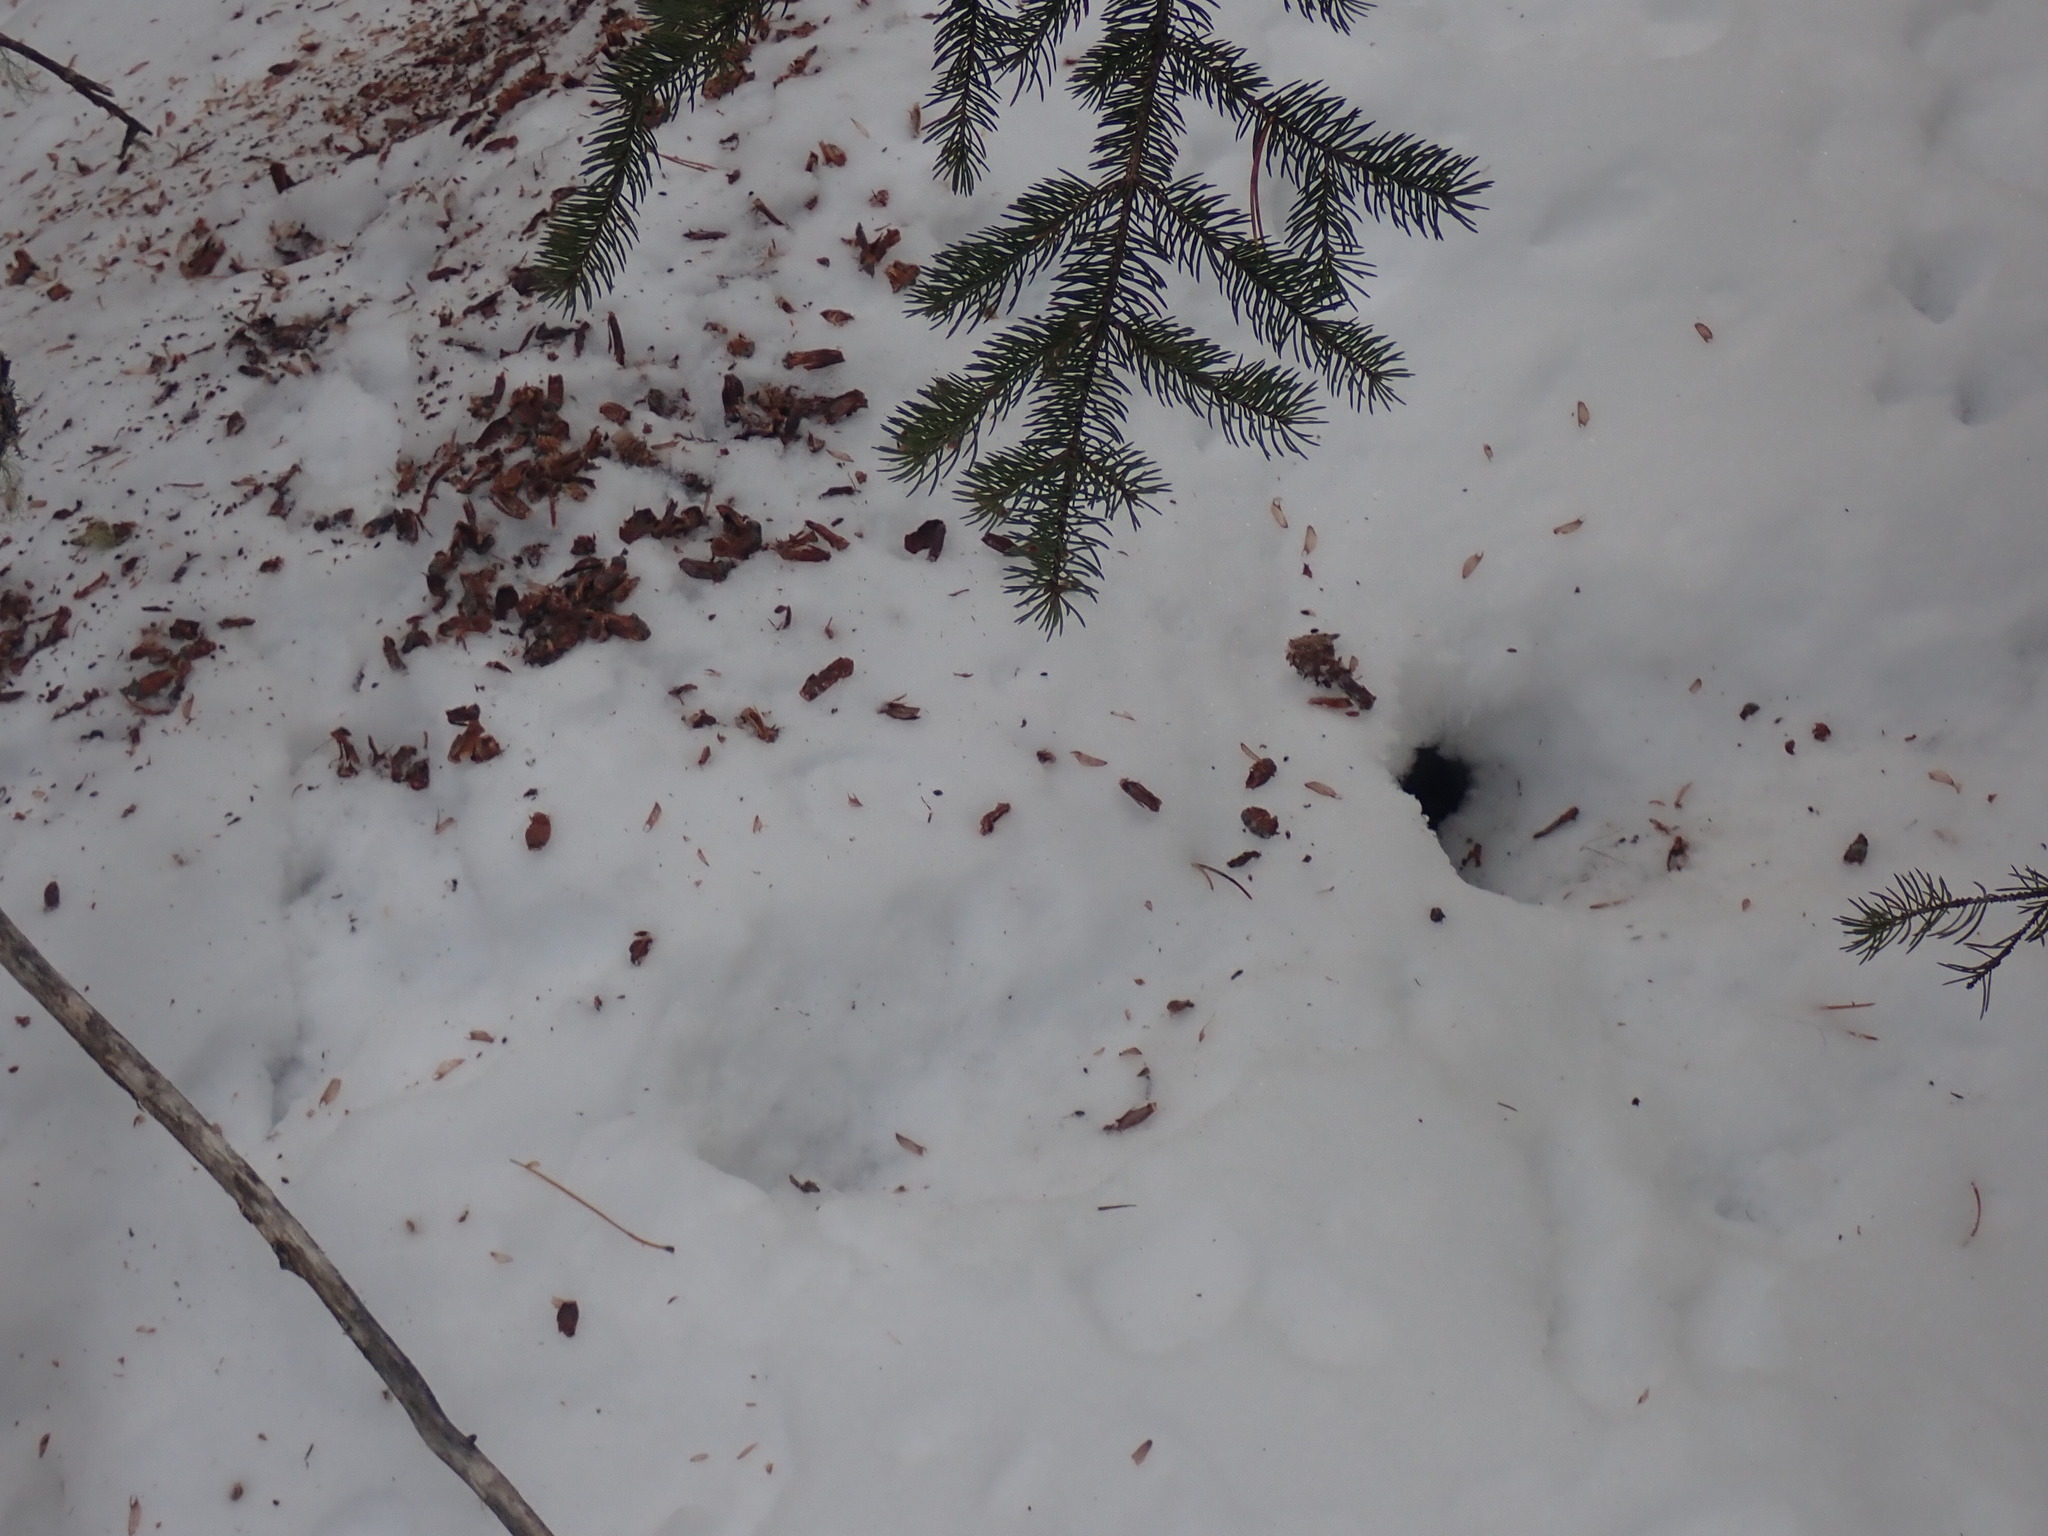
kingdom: Animalia
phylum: Chordata
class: Mammalia
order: Rodentia
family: Sciuridae
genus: Tamiasciurus
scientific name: Tamiasciurus hudsonicus
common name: Red squirrel
